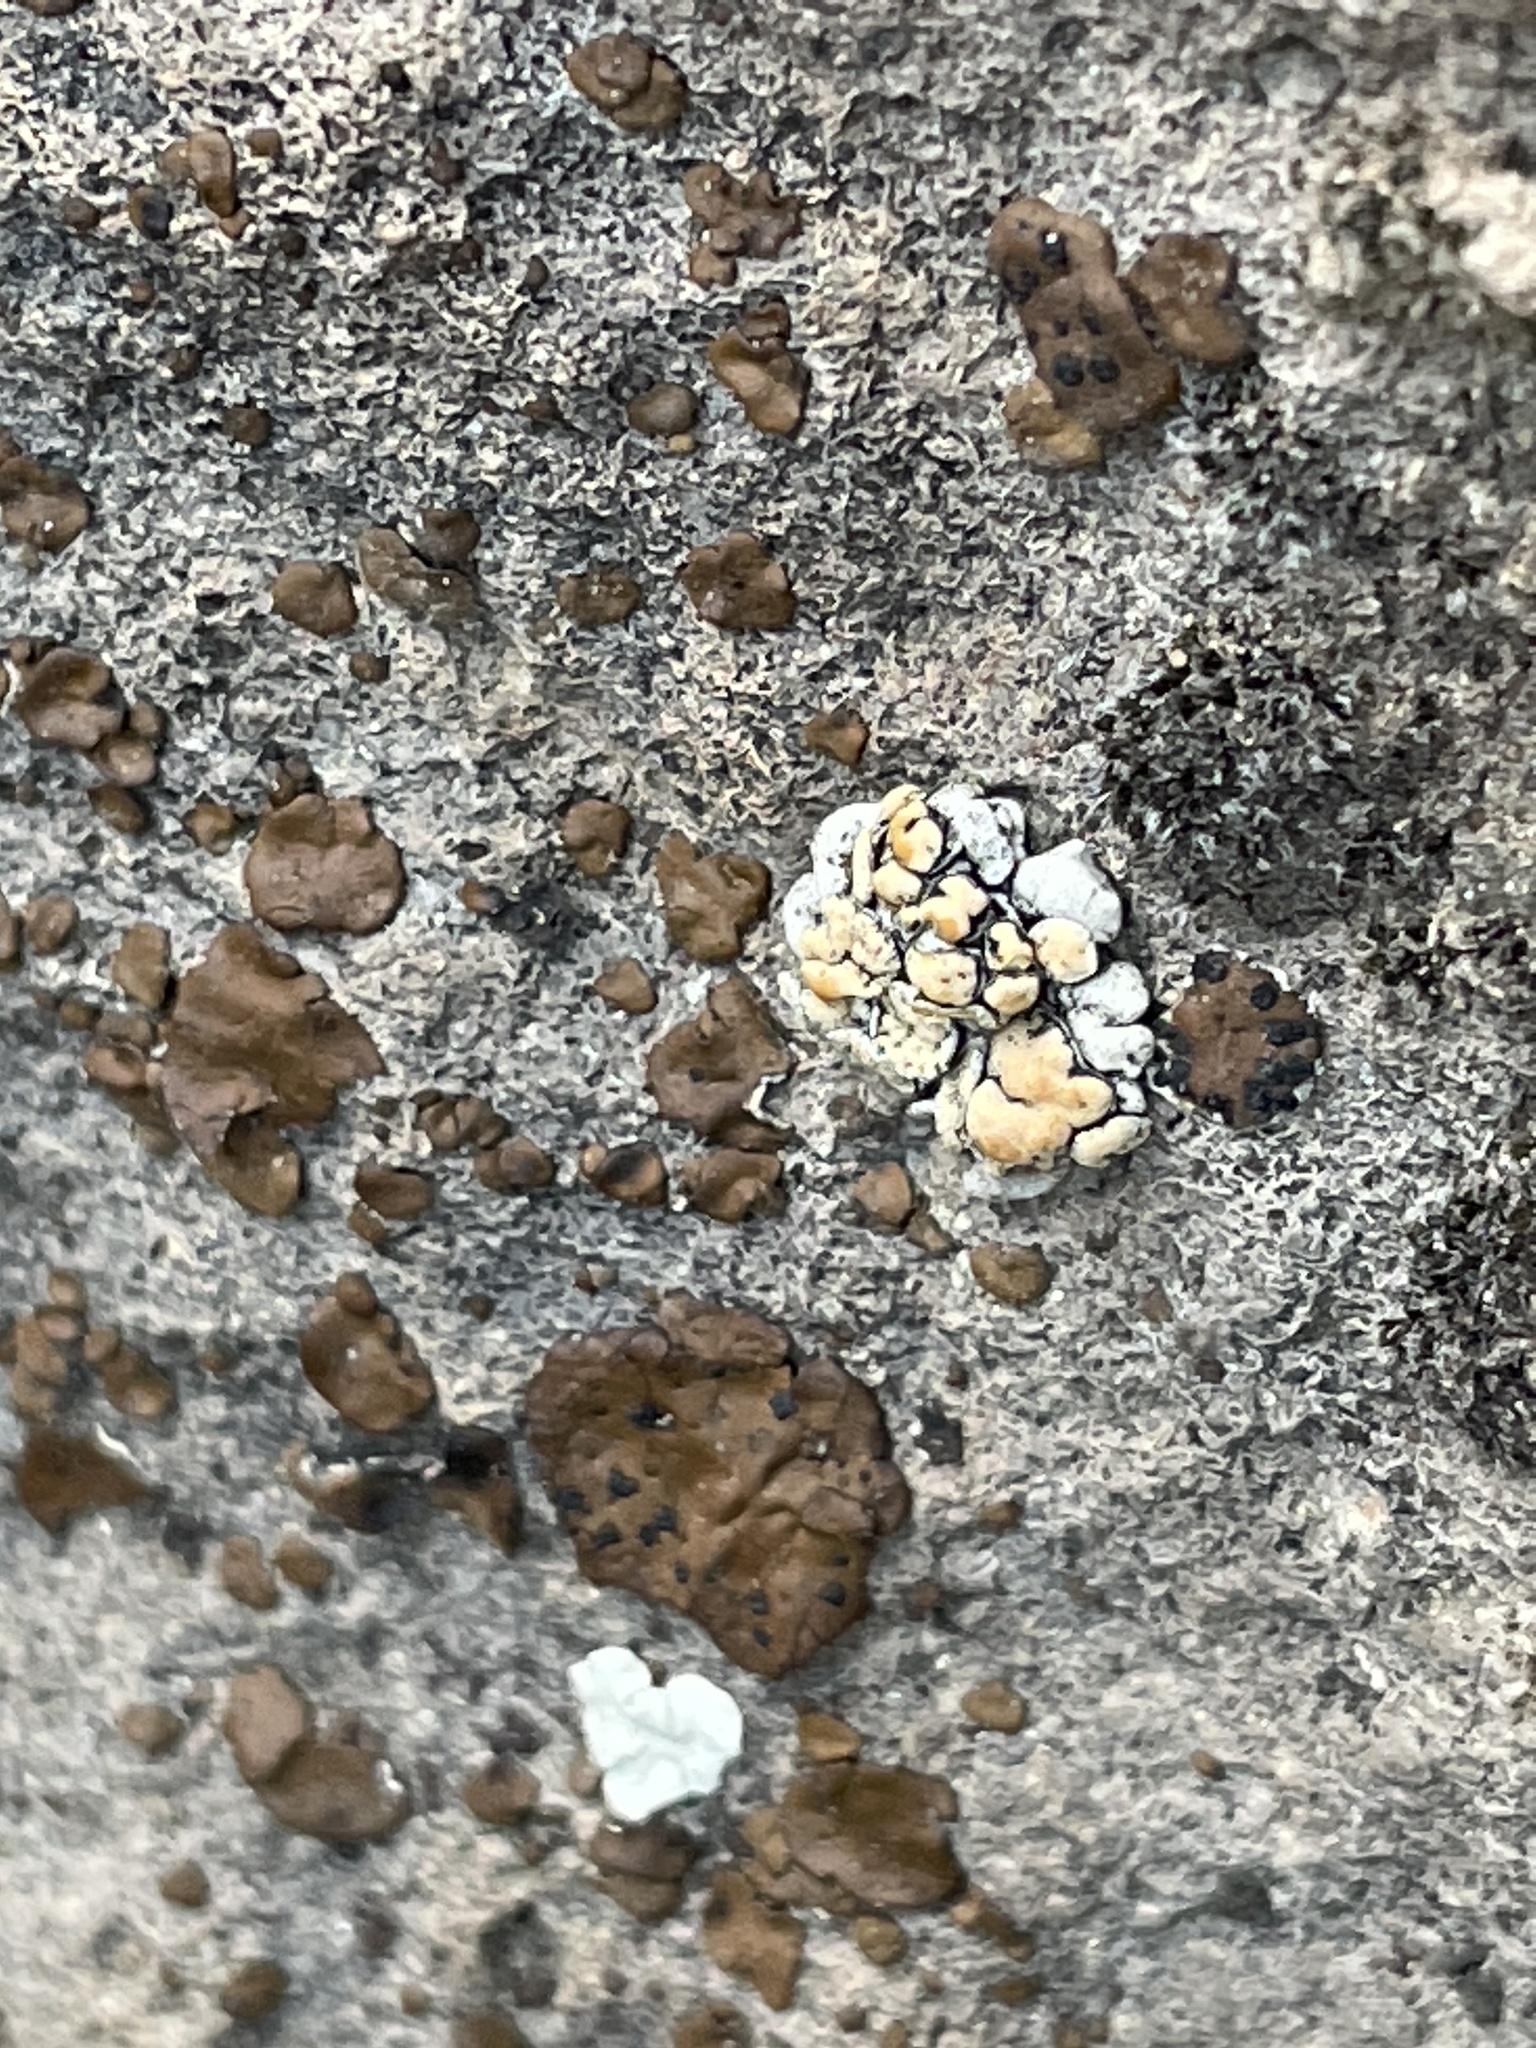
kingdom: Fungi
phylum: Ascomycota
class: Lecanoromycetes
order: Lecanorales
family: Lecanoraceae
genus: Omphalodina
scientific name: Omphalodina chrysoleuca
